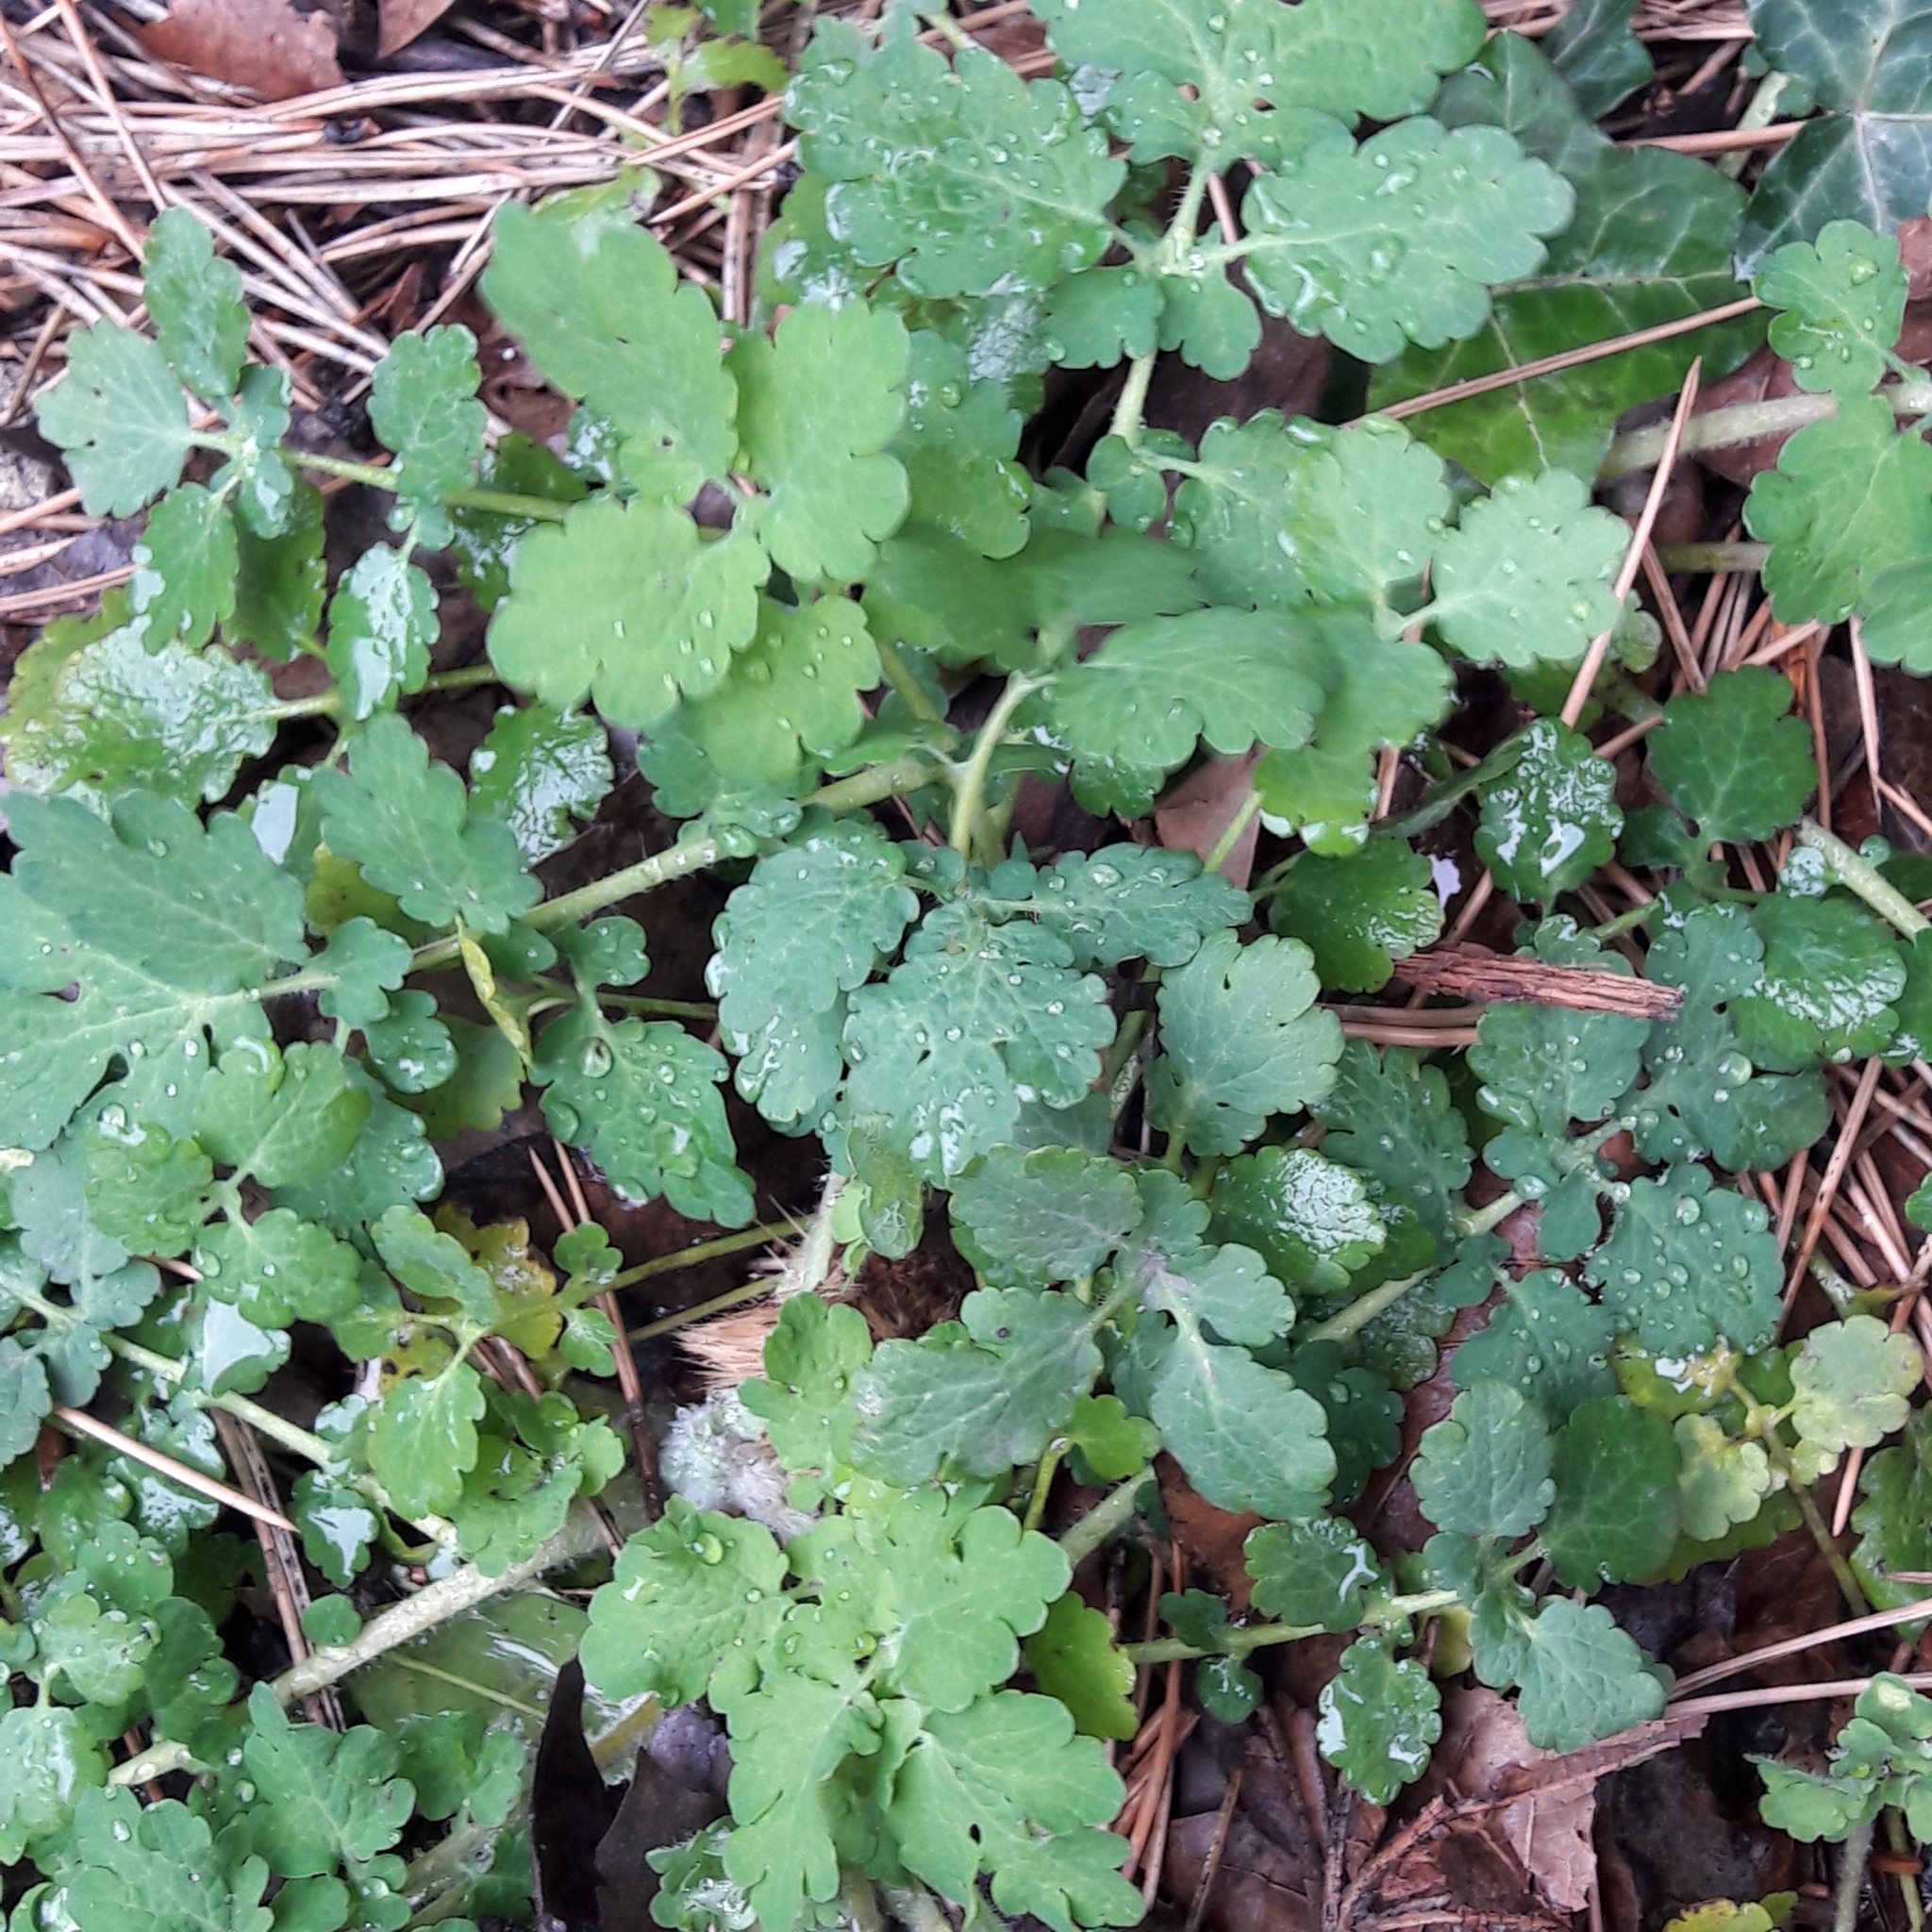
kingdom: Plantae
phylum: Tracheophyta
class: Magnoliopsida
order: Ranunculales
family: Papaveraceae
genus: Chelidonium
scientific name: Chelidonium majus
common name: Greater celandine
